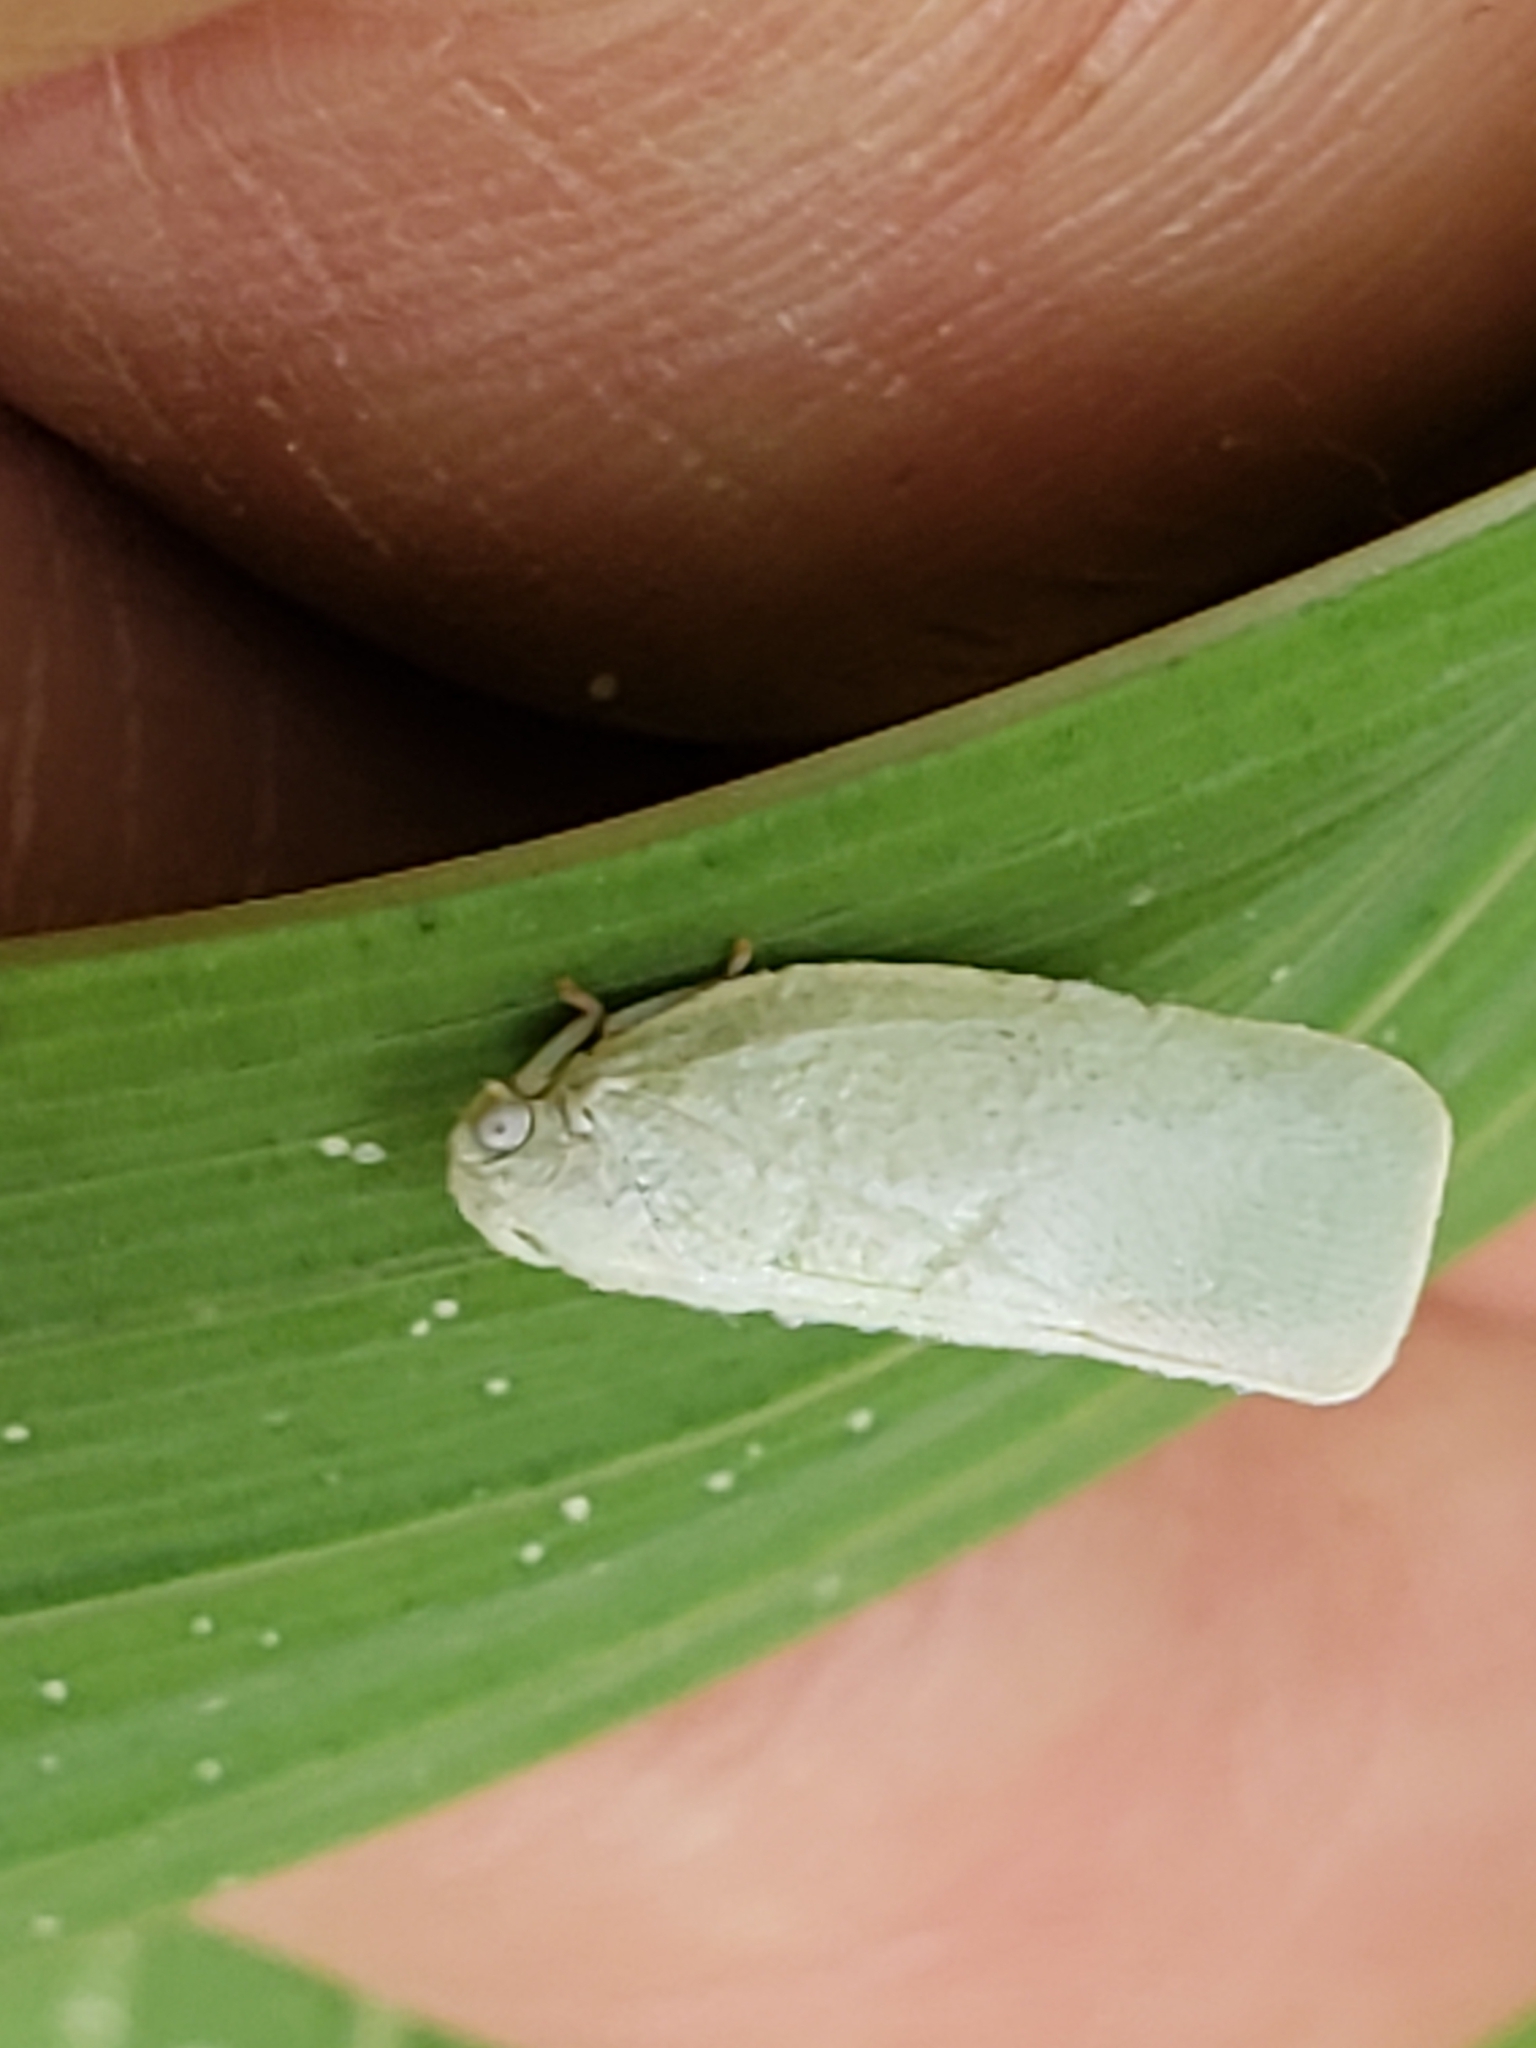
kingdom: Animalia
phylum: Arthropoda
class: Insecta
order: Hemiptera
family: Flatidae
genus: Flatormenis
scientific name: Flatormenis proxima
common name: Northern flatid planthopper
